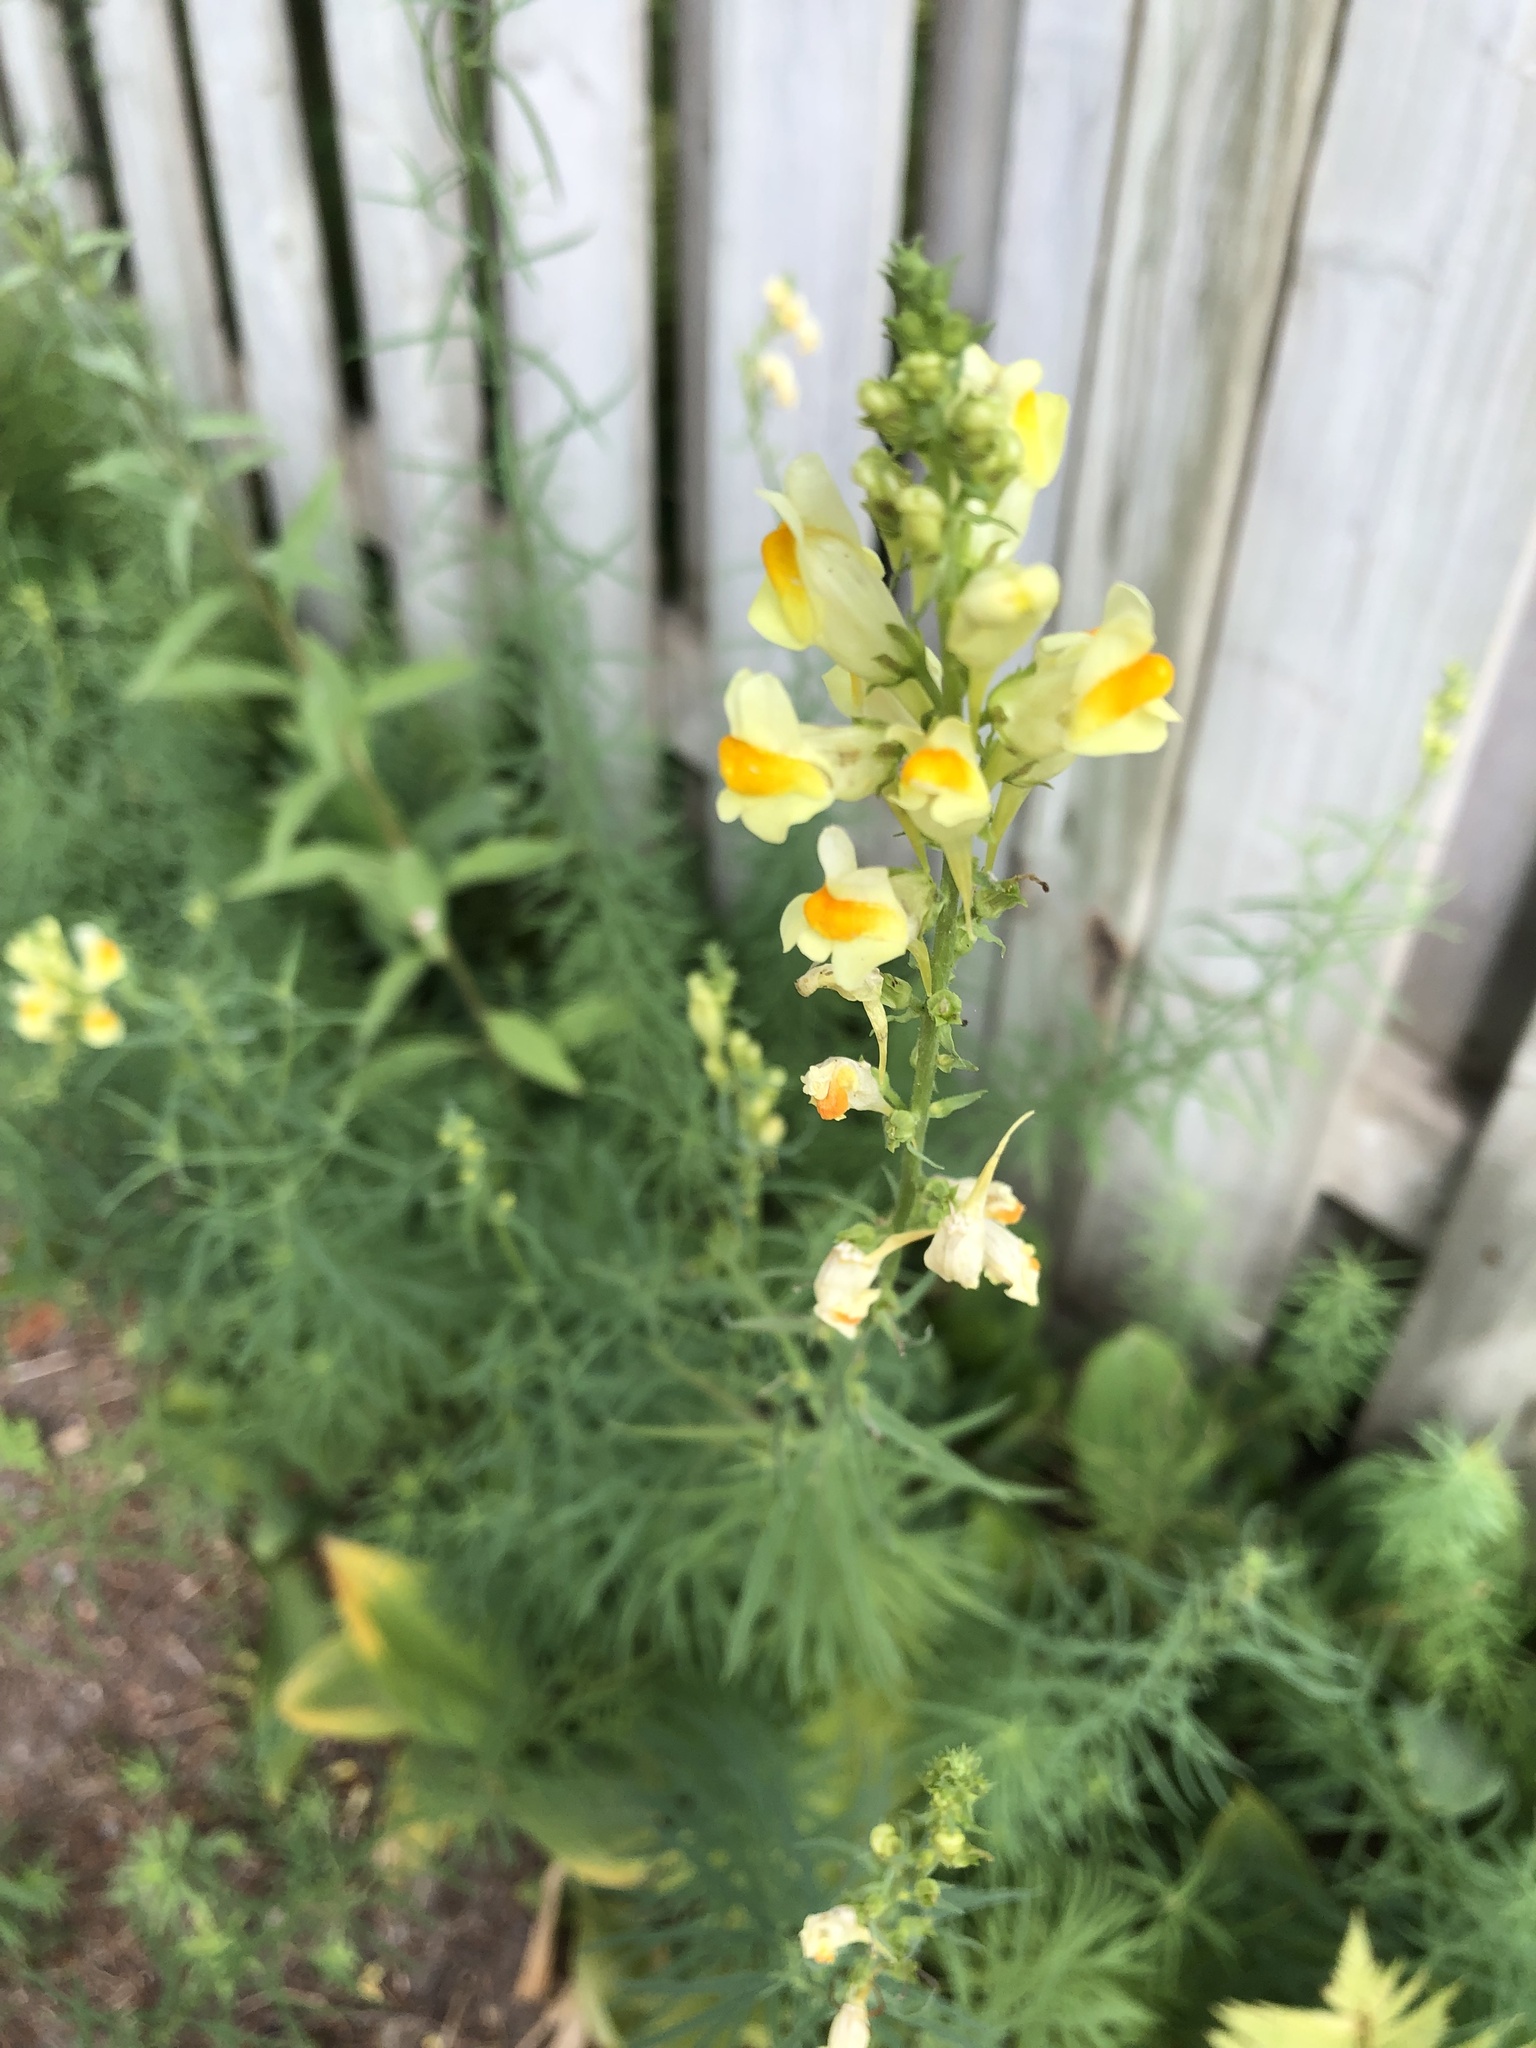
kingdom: Plantae
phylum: Tracheophyta
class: Magnoliopsida
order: Lamiales
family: Plantaginaceae
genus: Linaria
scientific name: Linaria vulgaris
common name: Butter and eggs
